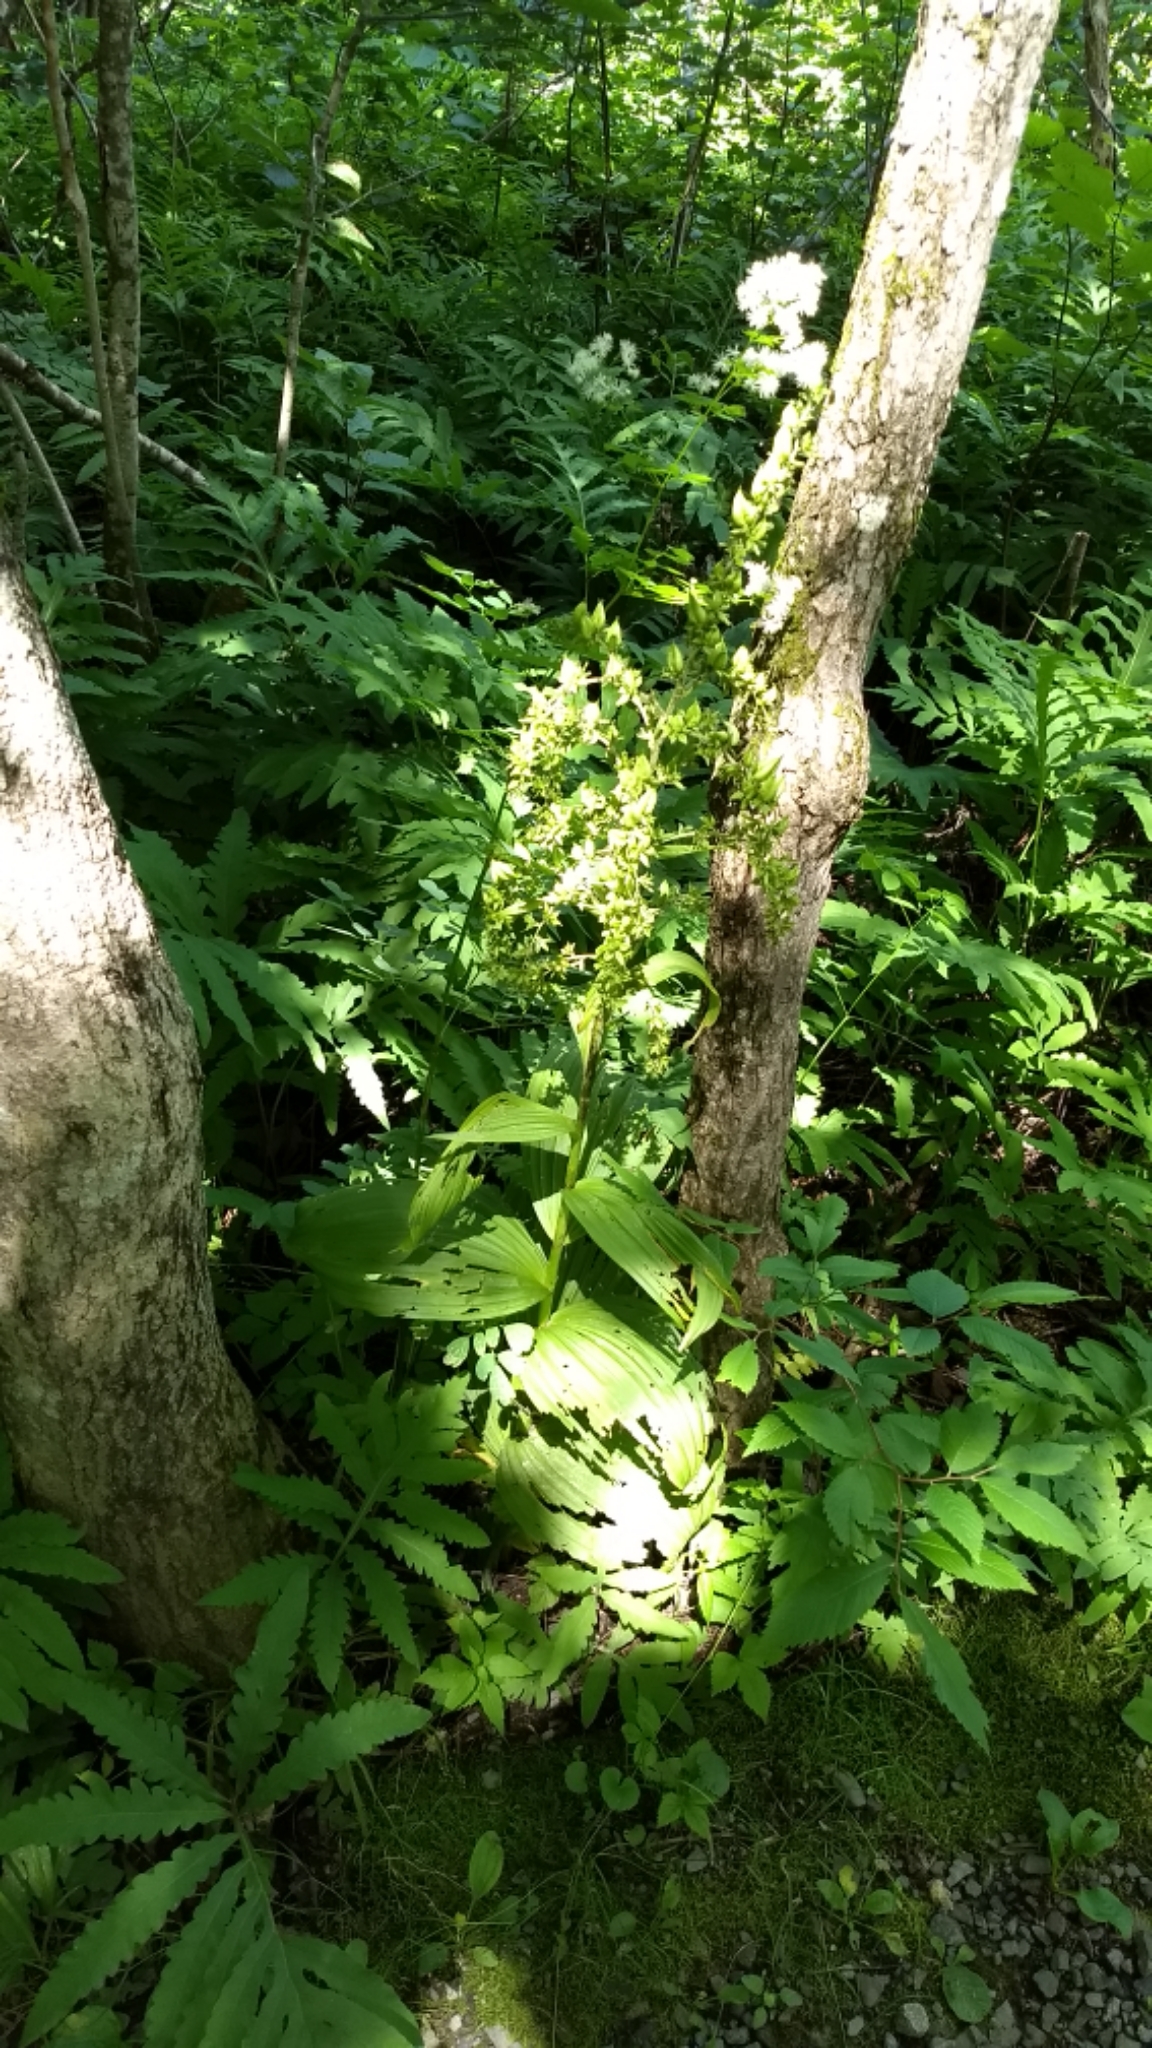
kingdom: Plantae
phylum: Tracheophyta
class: Liliopsida
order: Liliales
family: Melanthiaceae
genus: Veratrum
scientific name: Veratrum viride
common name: American false hellebore
